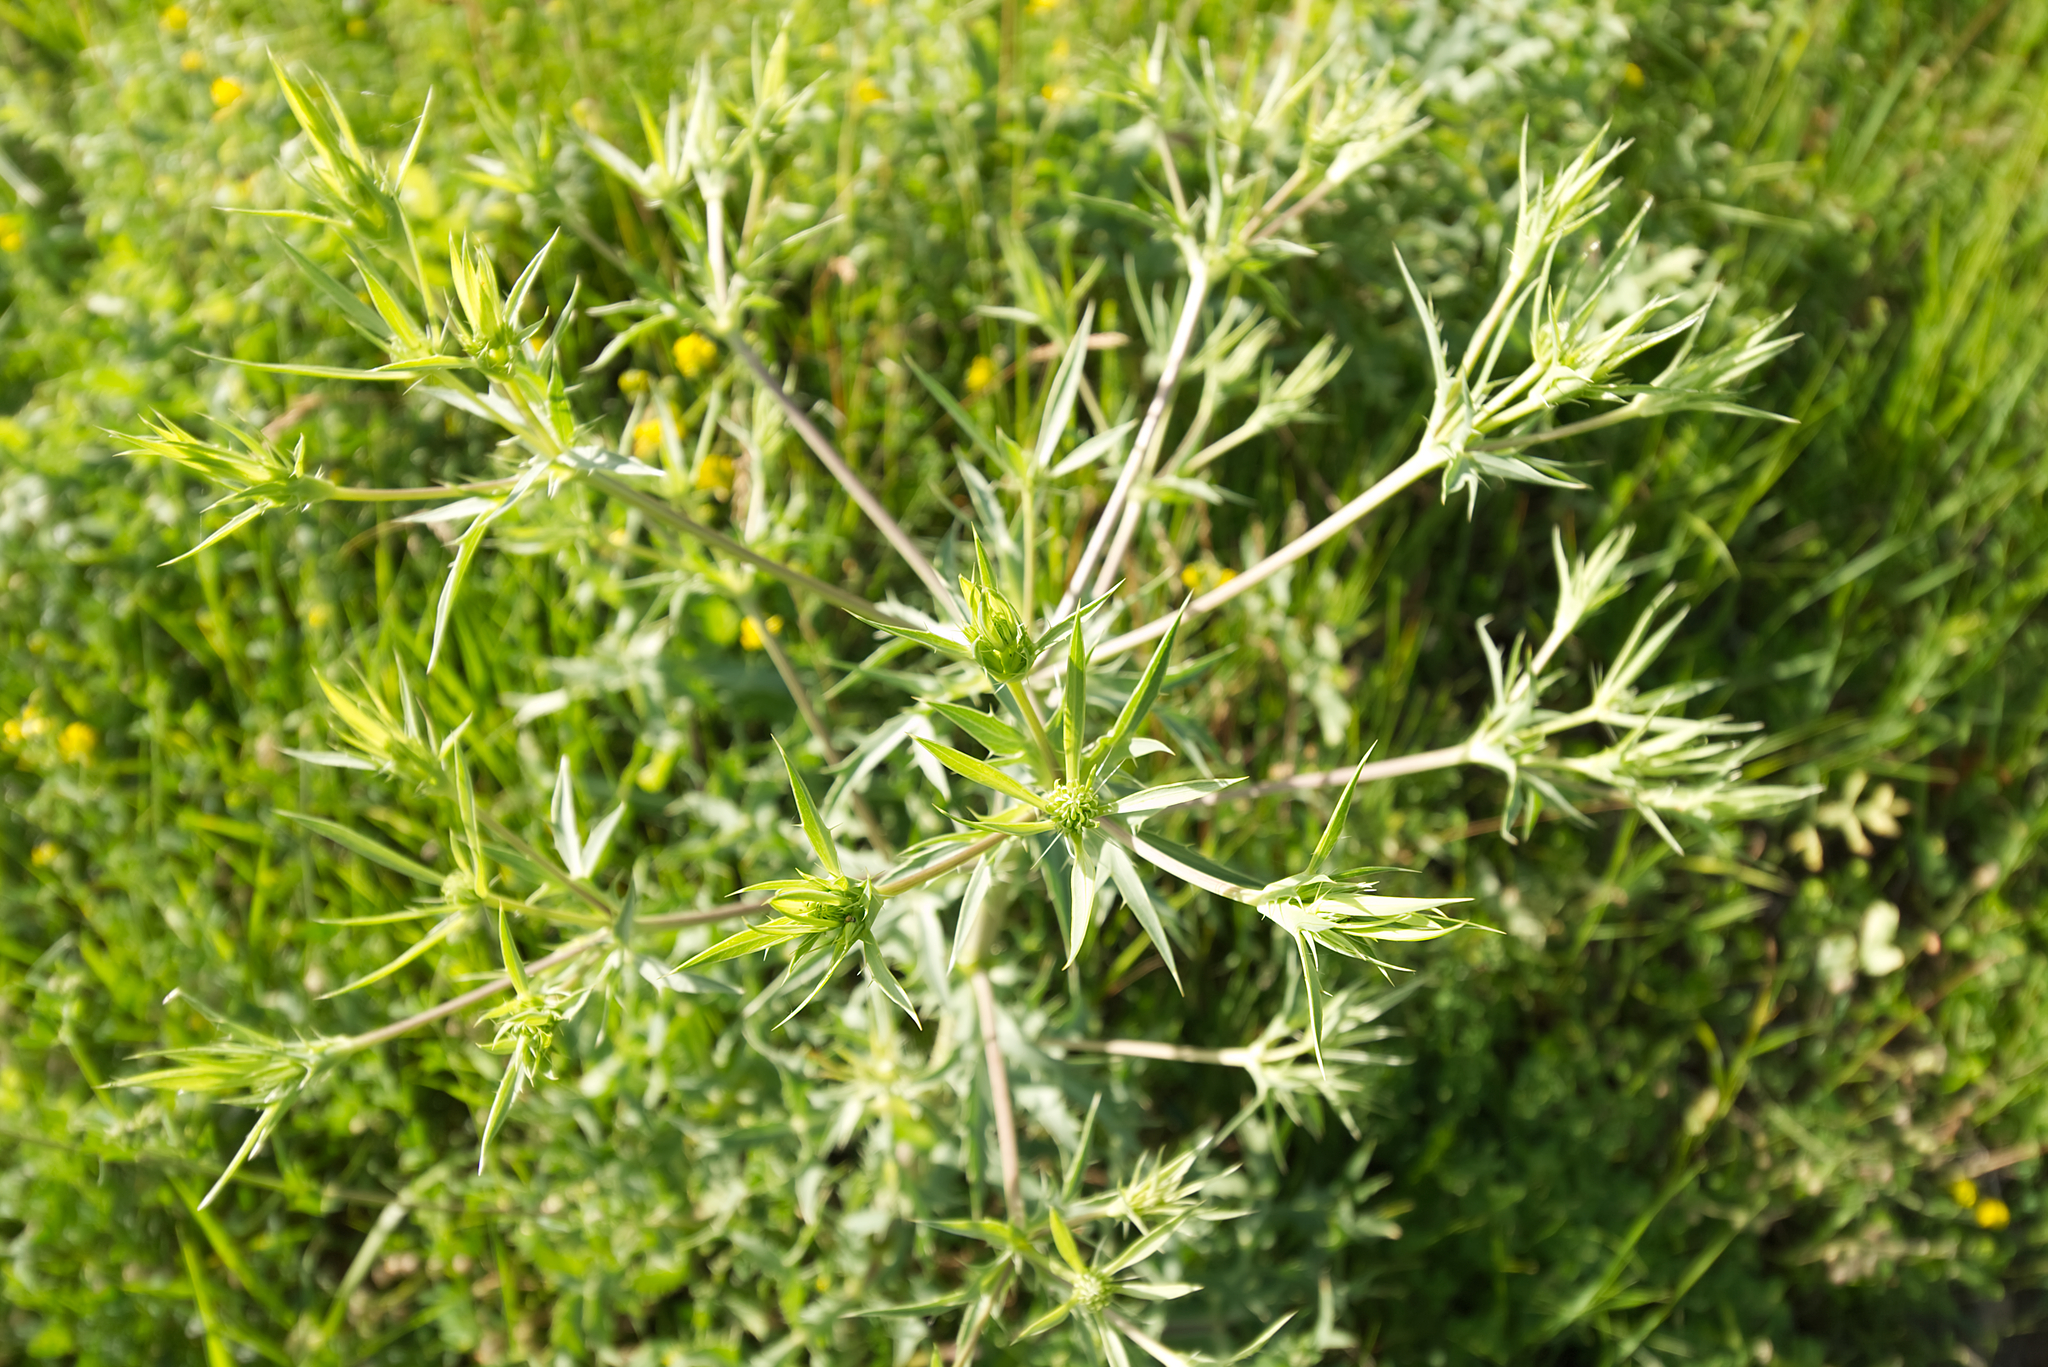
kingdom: Plantae
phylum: Tracheophyta
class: Magnoliopsida
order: Apiales
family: Apiaceae
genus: Eryngium
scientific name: Eryngium campestre
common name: Field eryngo
